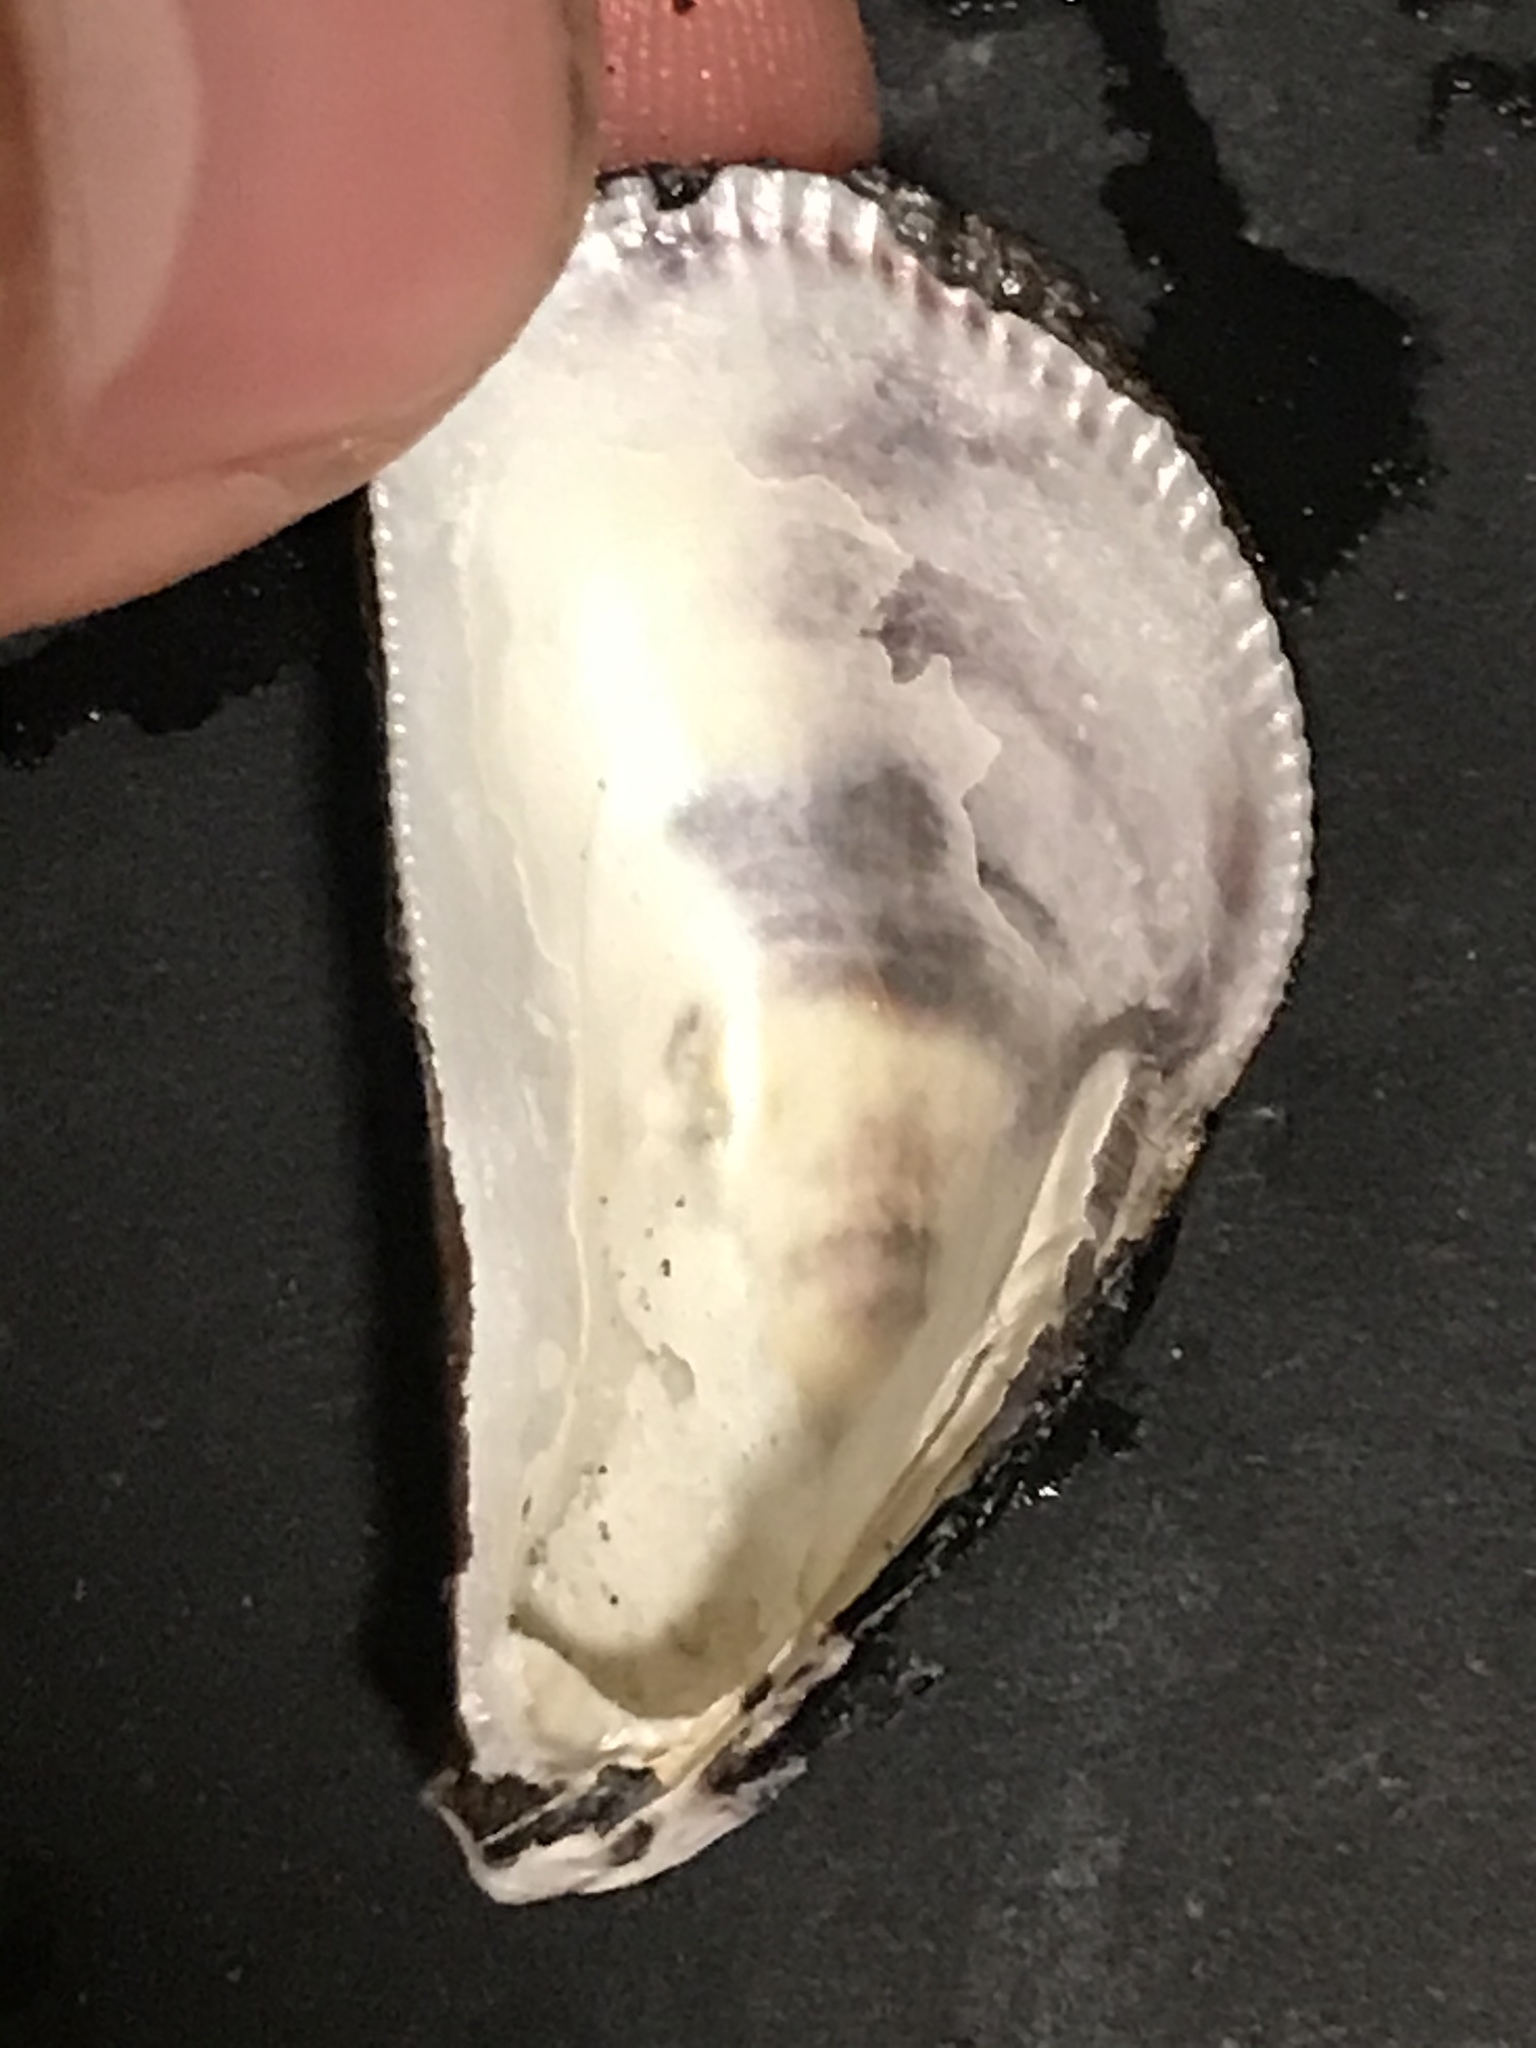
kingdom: Animalia
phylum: Mollusca
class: Bivalvia
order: Mytilida
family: Mytilidae
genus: Mytilisepta
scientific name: Mytilisepta bifurcata
